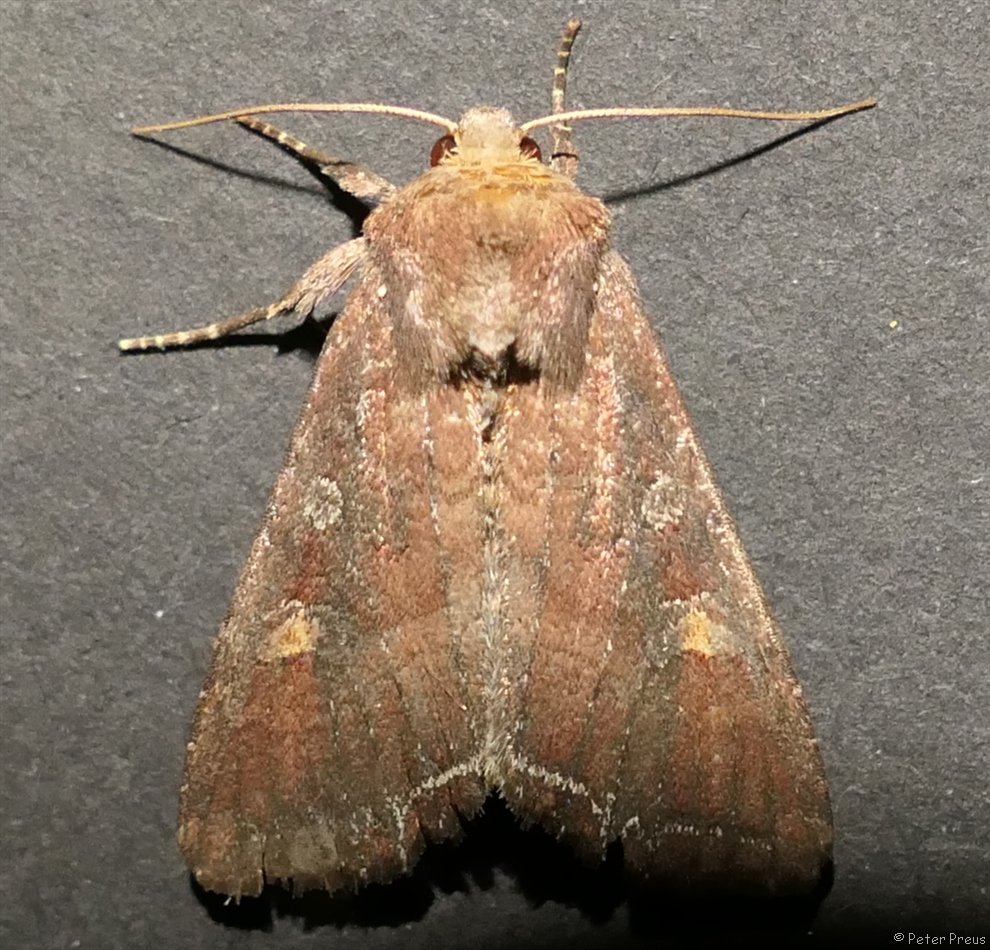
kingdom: Animalia
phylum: Arthropoda
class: Insecta
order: Lepidoptera
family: Noctuidae
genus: Lacanobia
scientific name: Lacanobia oleracea
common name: Bright-line brown-eye
